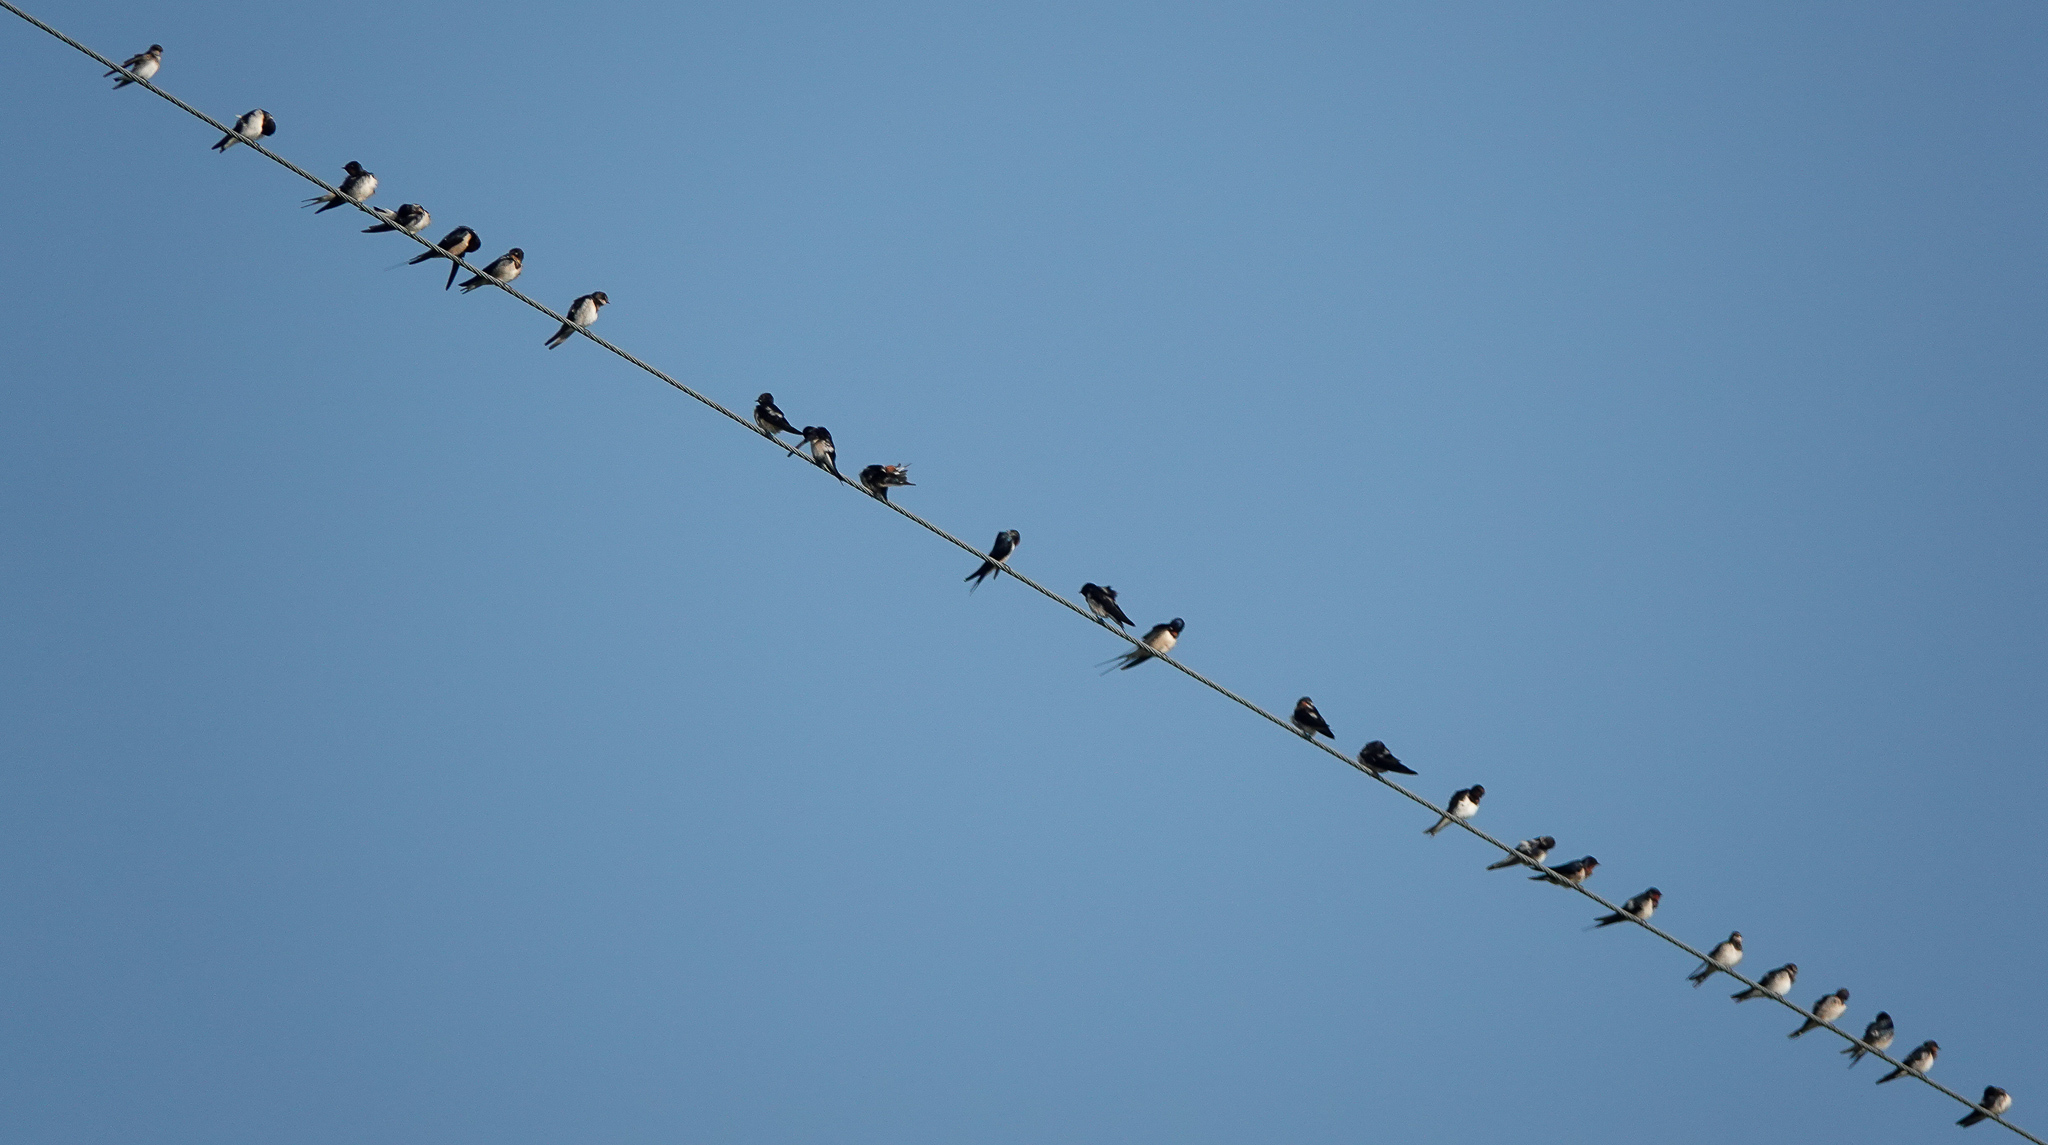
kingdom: Animalia
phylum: Chordata
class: Aves
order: Passeriformes
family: Hirundinidae
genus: Hirundo
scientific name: Hirundo rustica
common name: Barn swallow
